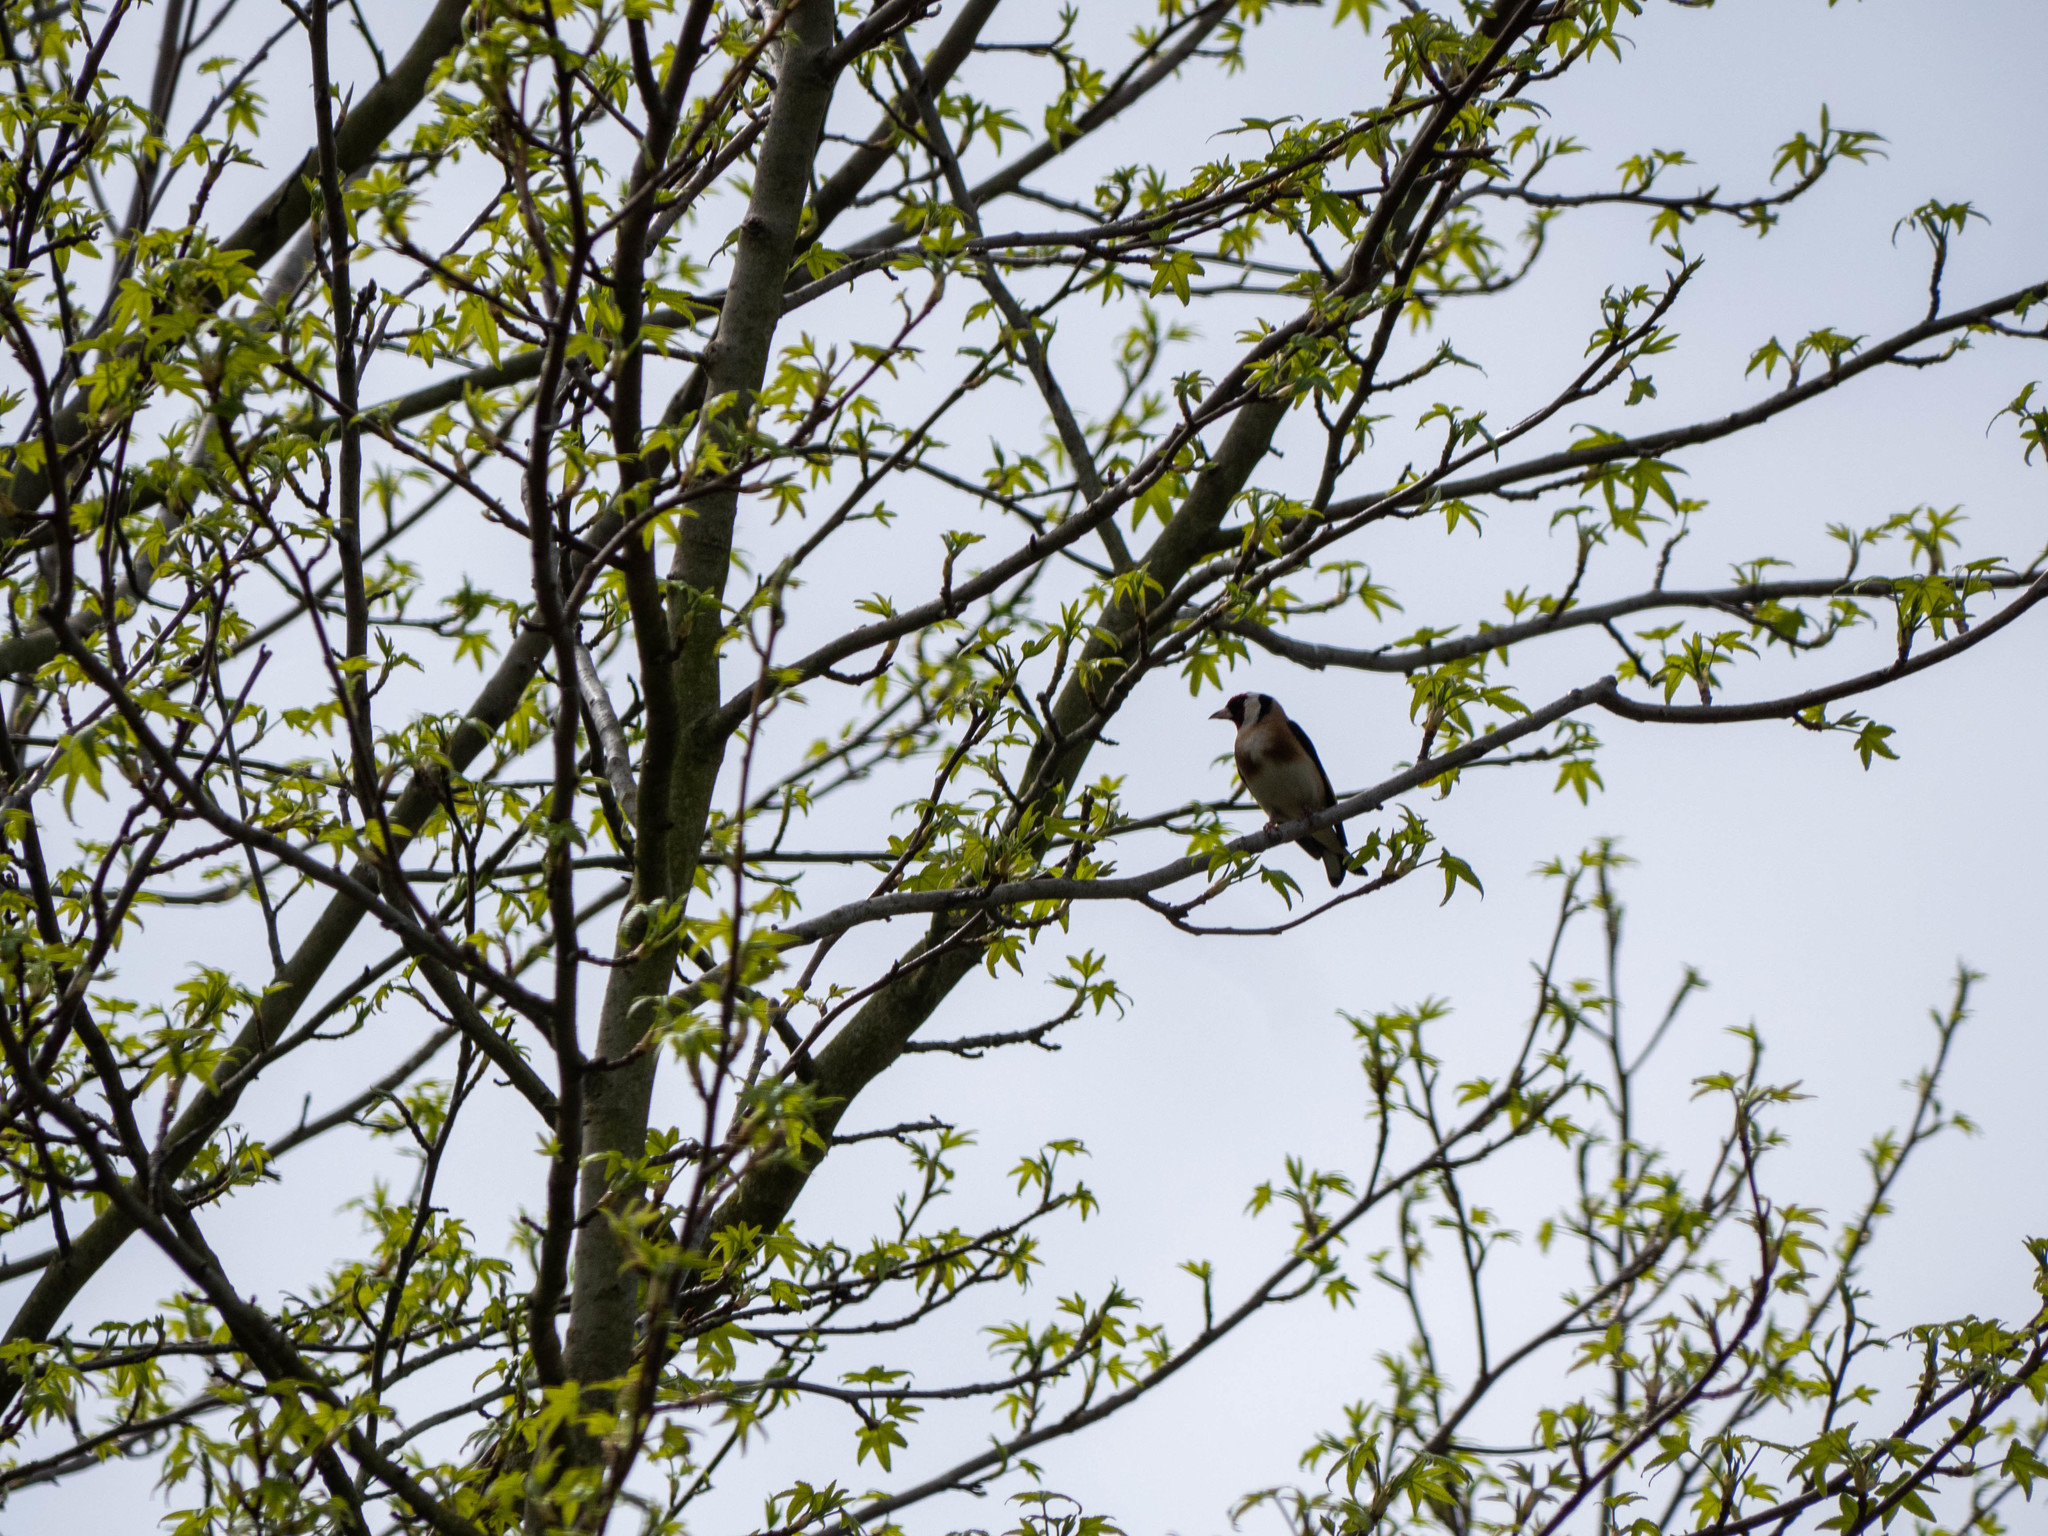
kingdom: Animalia
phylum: Chordata
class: Aves
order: Passeriformes
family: Fringillidae
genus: Carduelis
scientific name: Carduelis carduelis
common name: European goldfinch
